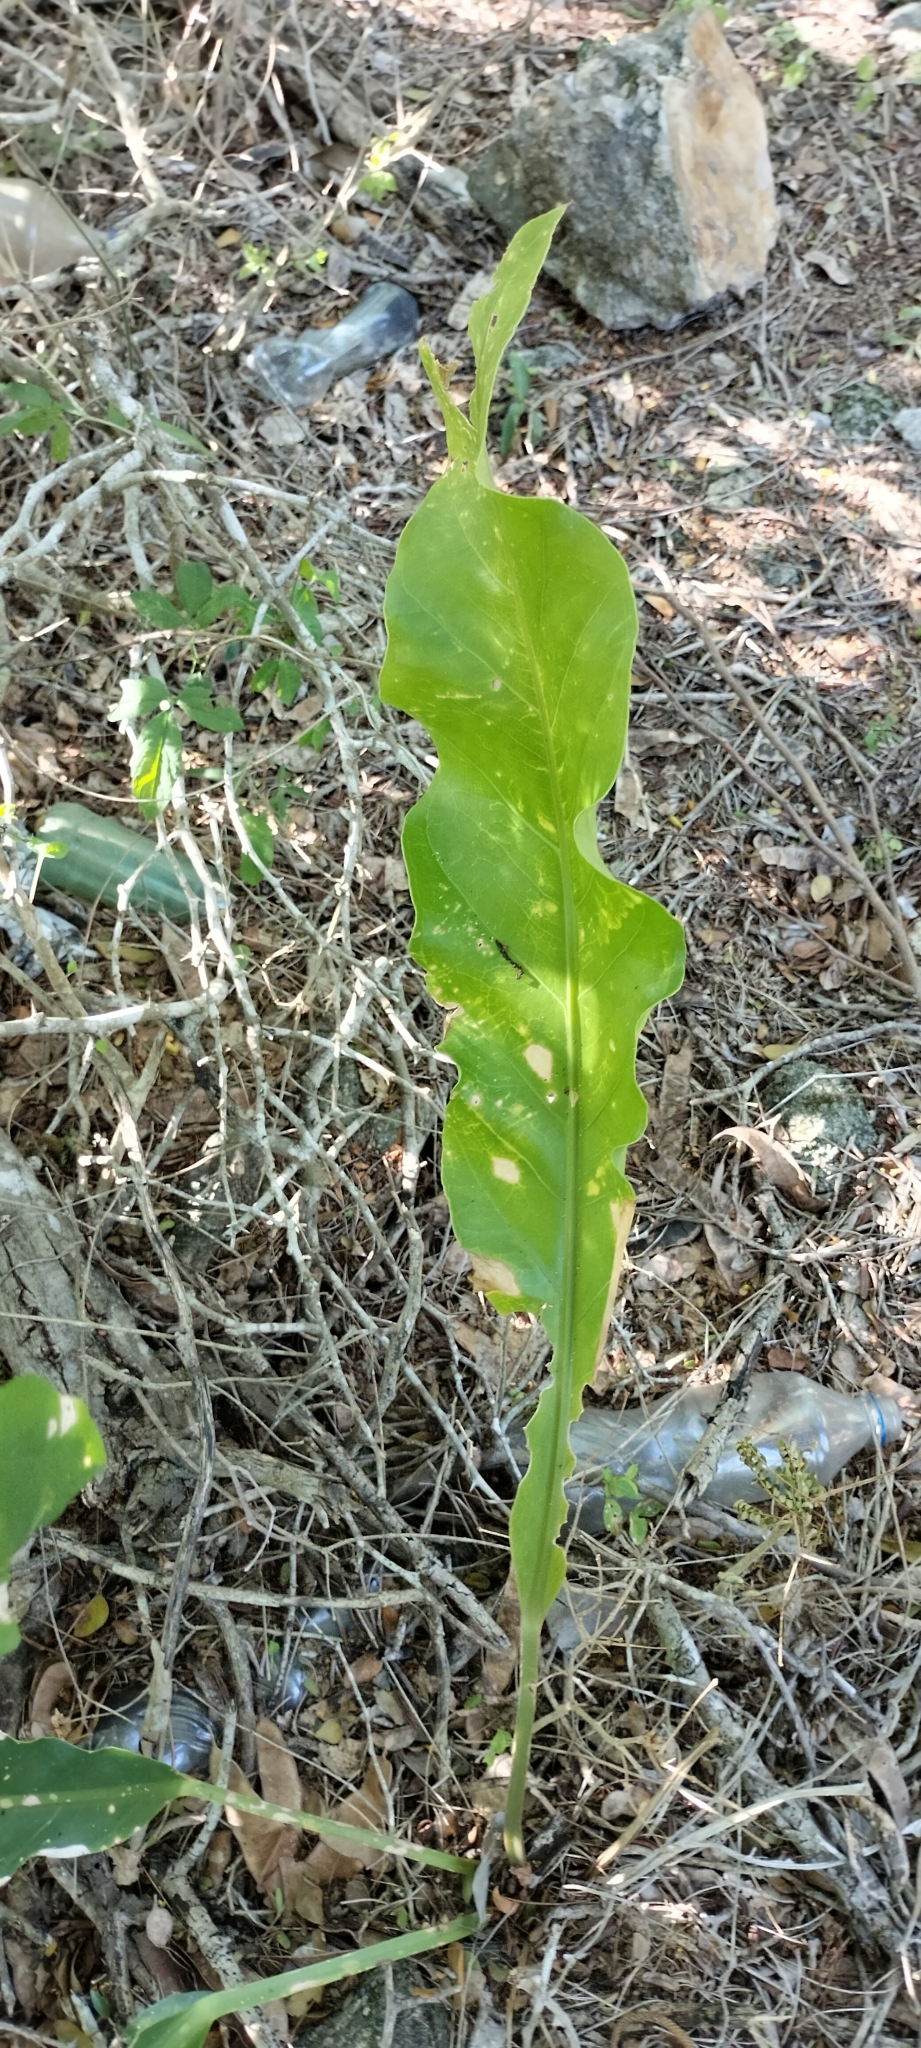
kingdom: Plantae
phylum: Tracheophyta
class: Liliopsida
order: Alismatales
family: Araceae
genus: Anthurium
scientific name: Anthurium schlechtendalii
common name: Laceleaf
